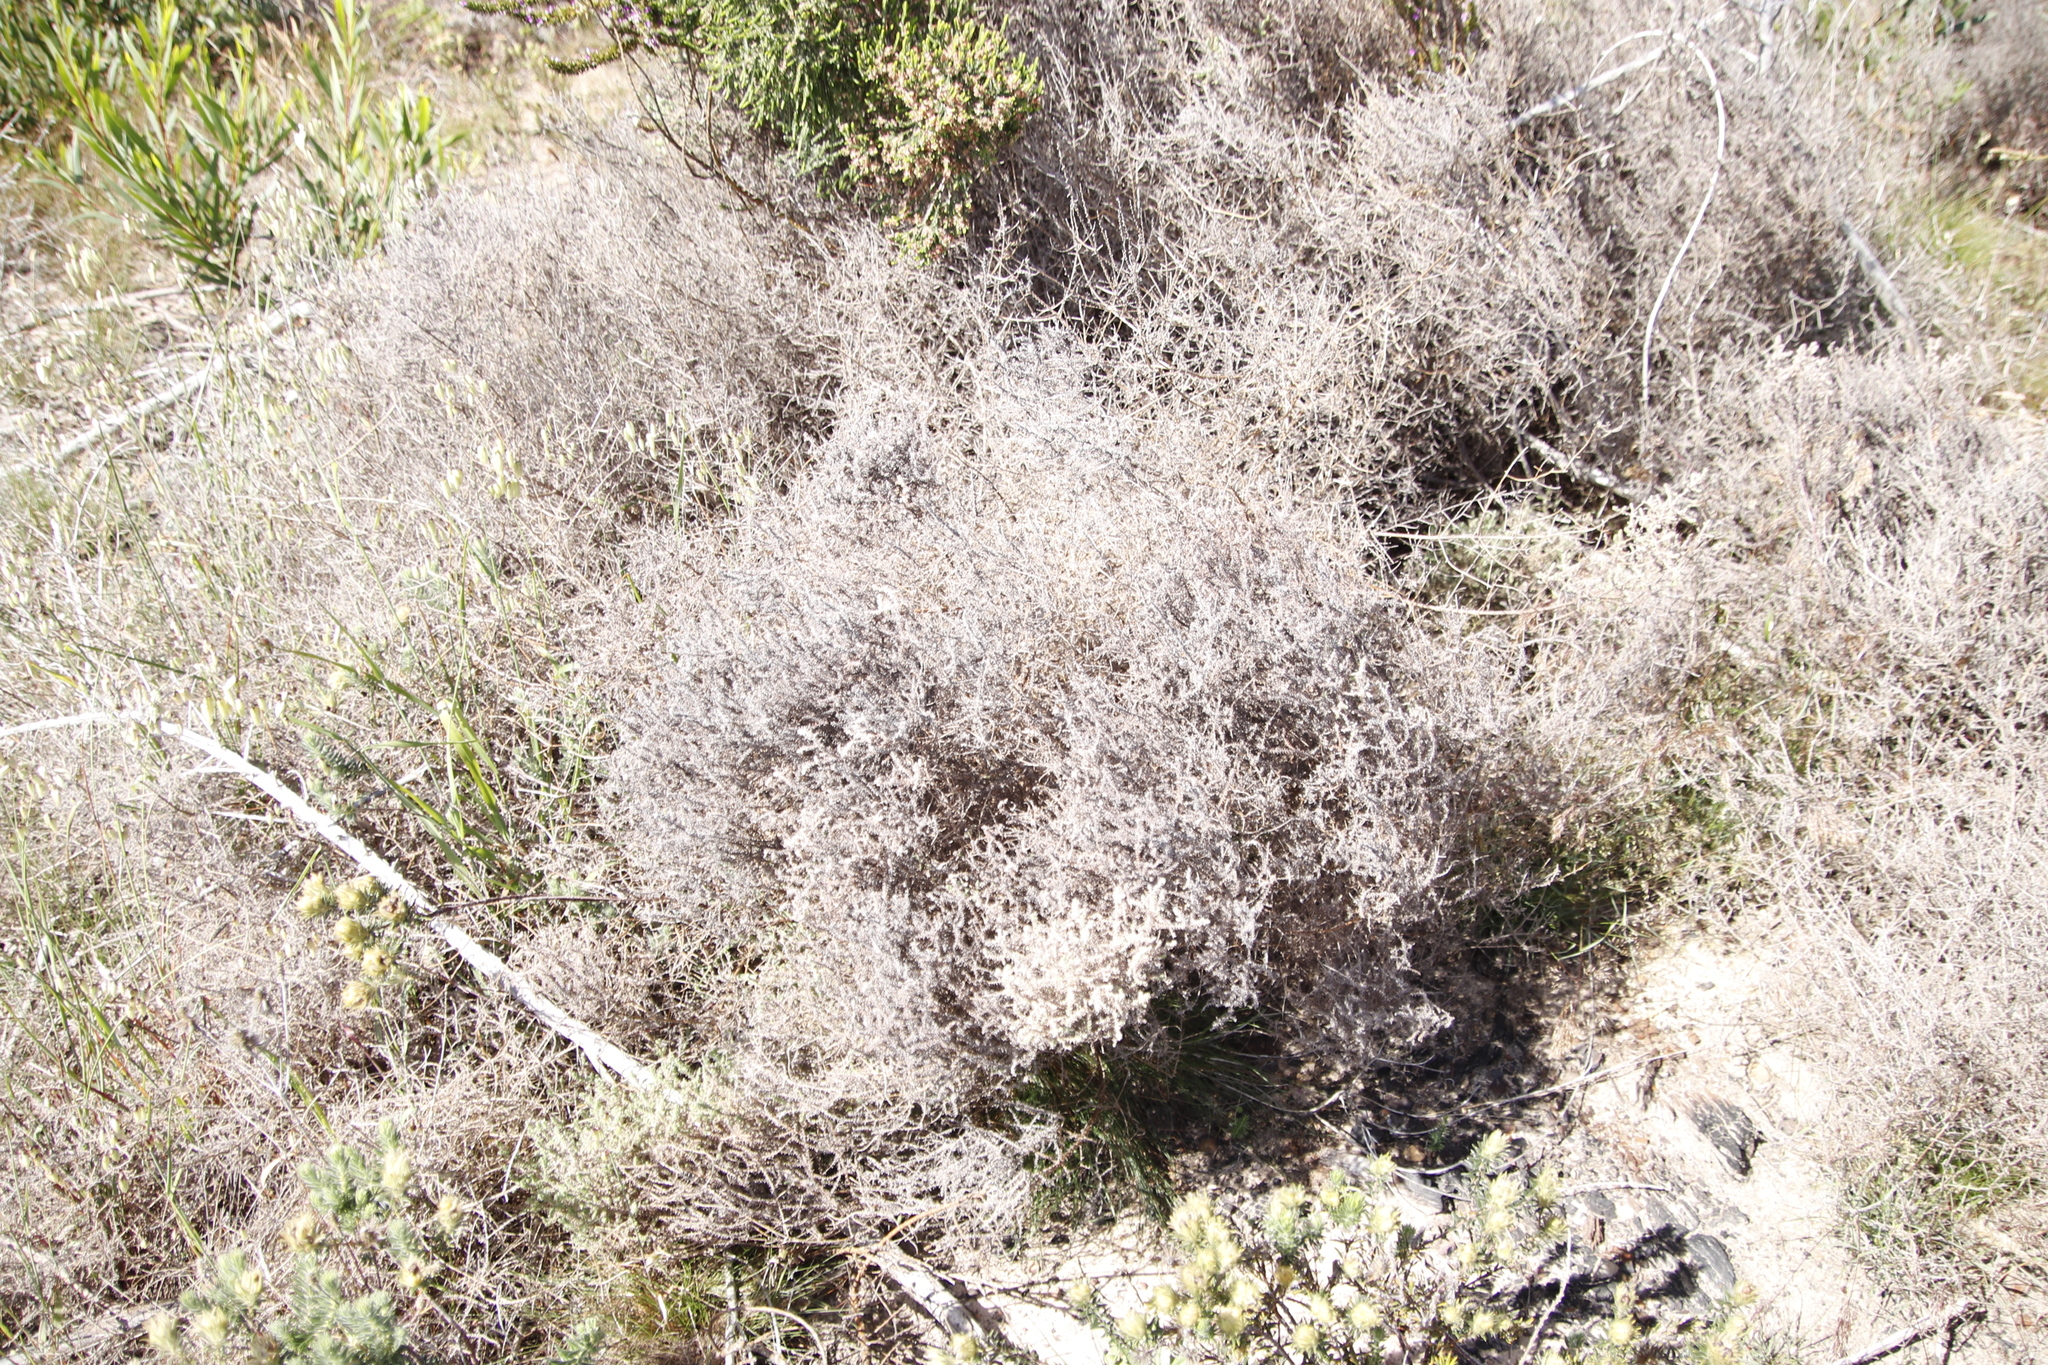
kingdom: Plantae
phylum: Tracheophyta
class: Magnoliopsida
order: Asterales
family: Asteraceae
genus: Seriphium
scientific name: Seriphium cinereum
